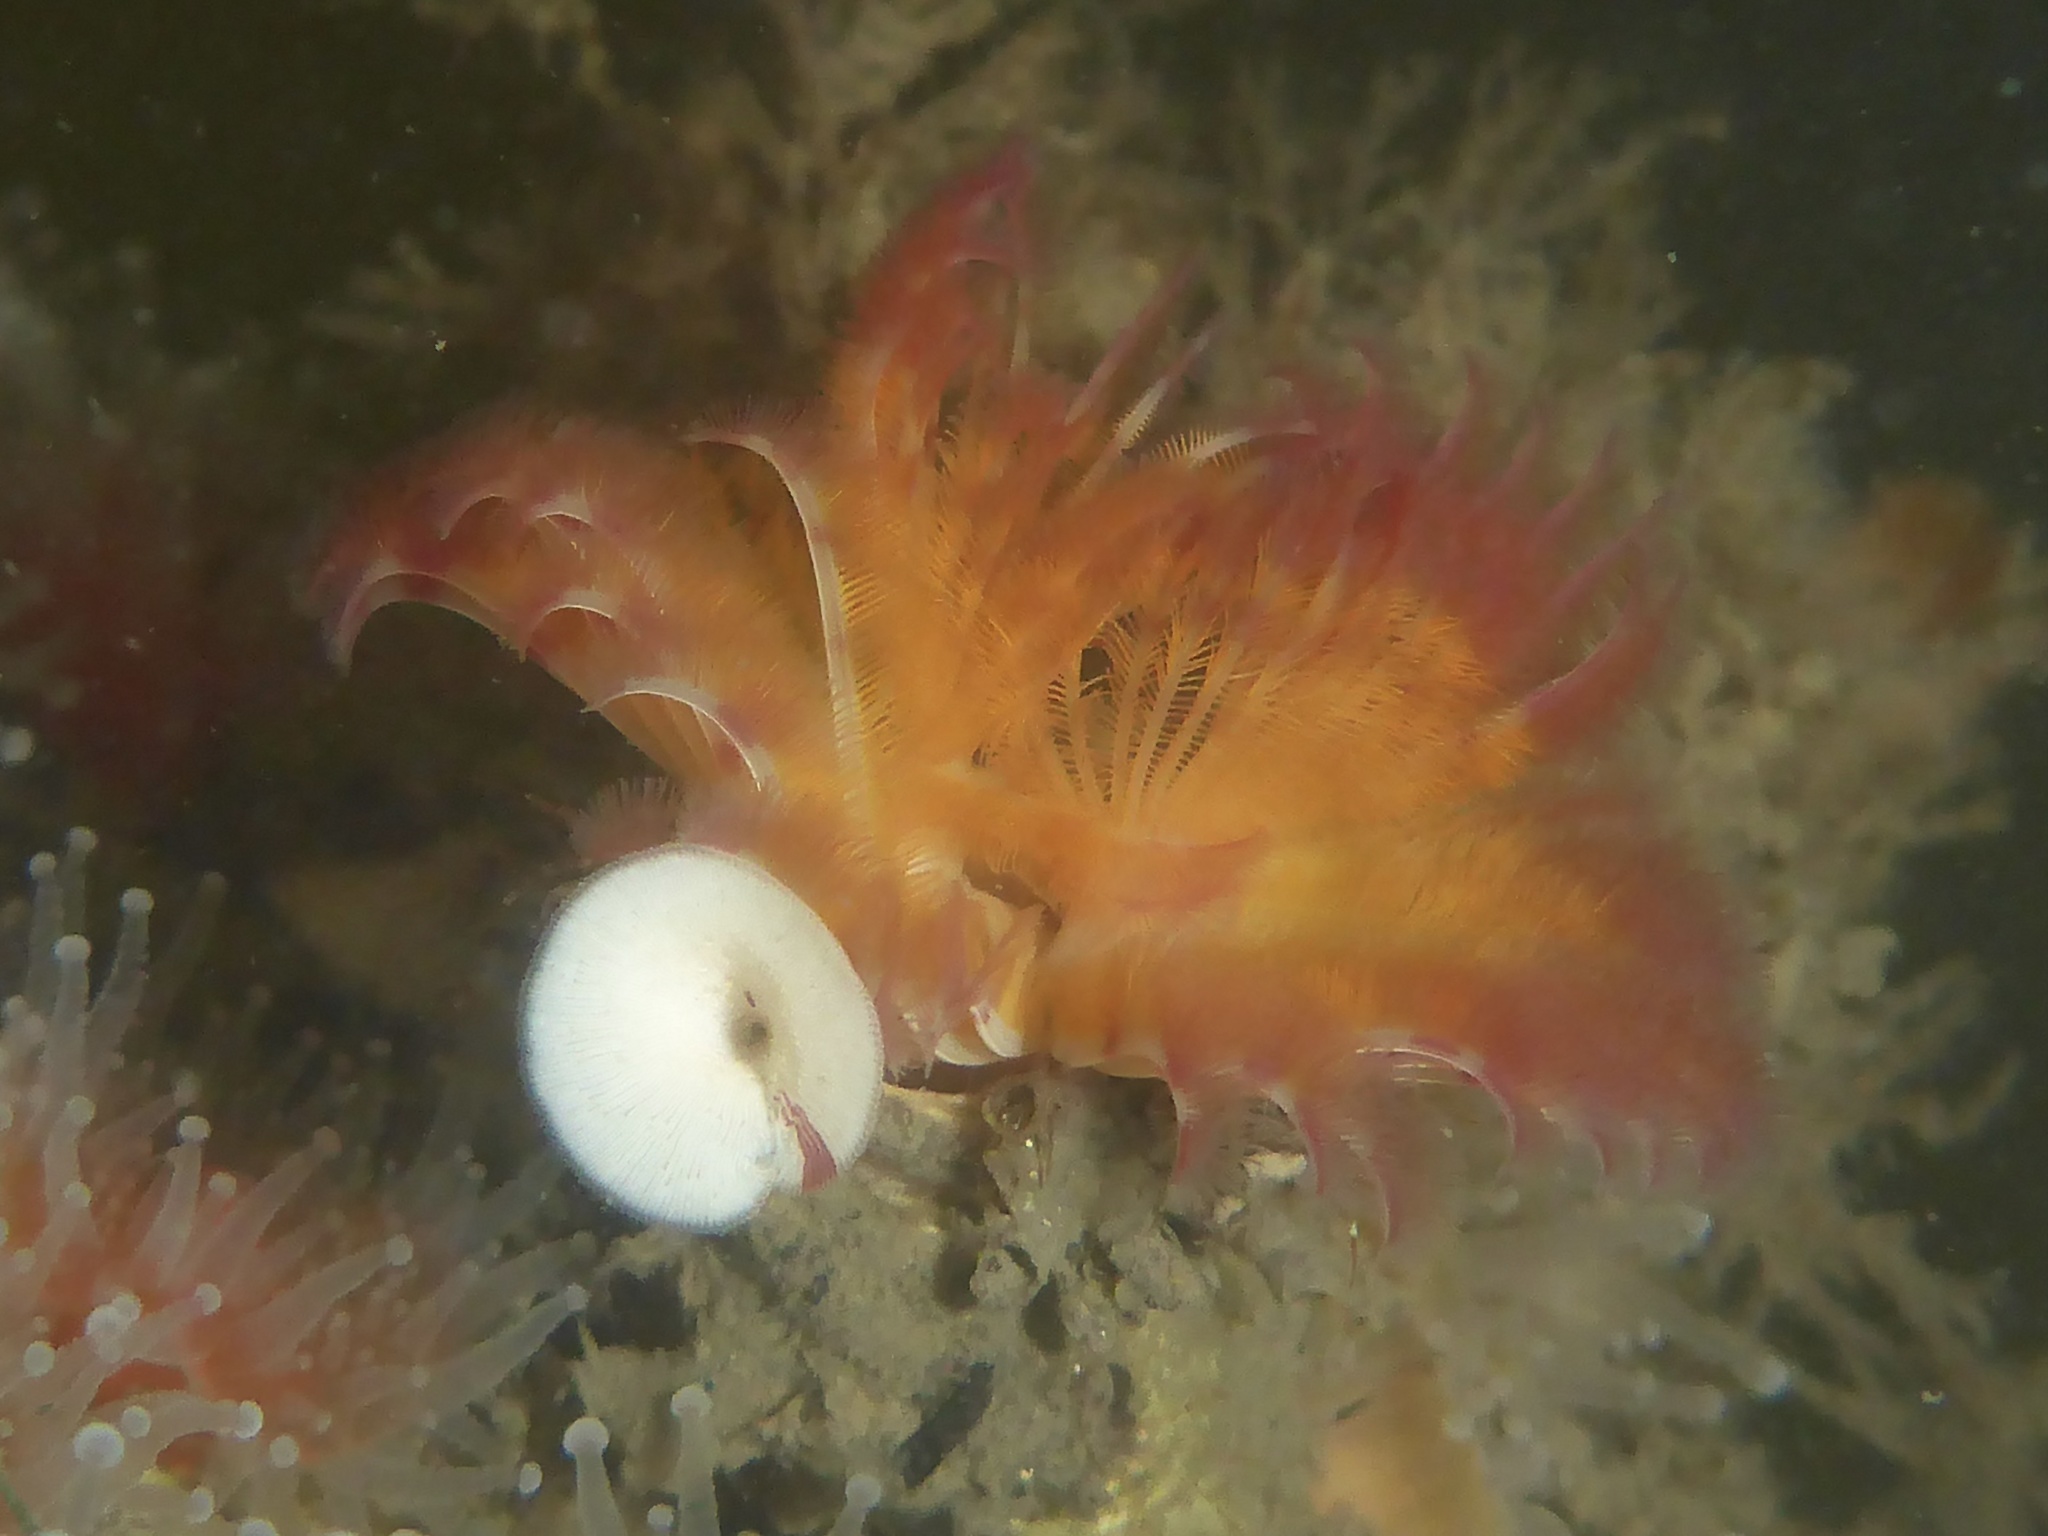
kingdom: Animalia
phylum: Annelida
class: Polychaeta
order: Sabellida
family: Serpulidae
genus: Serpula
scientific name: Serpula columbiana
